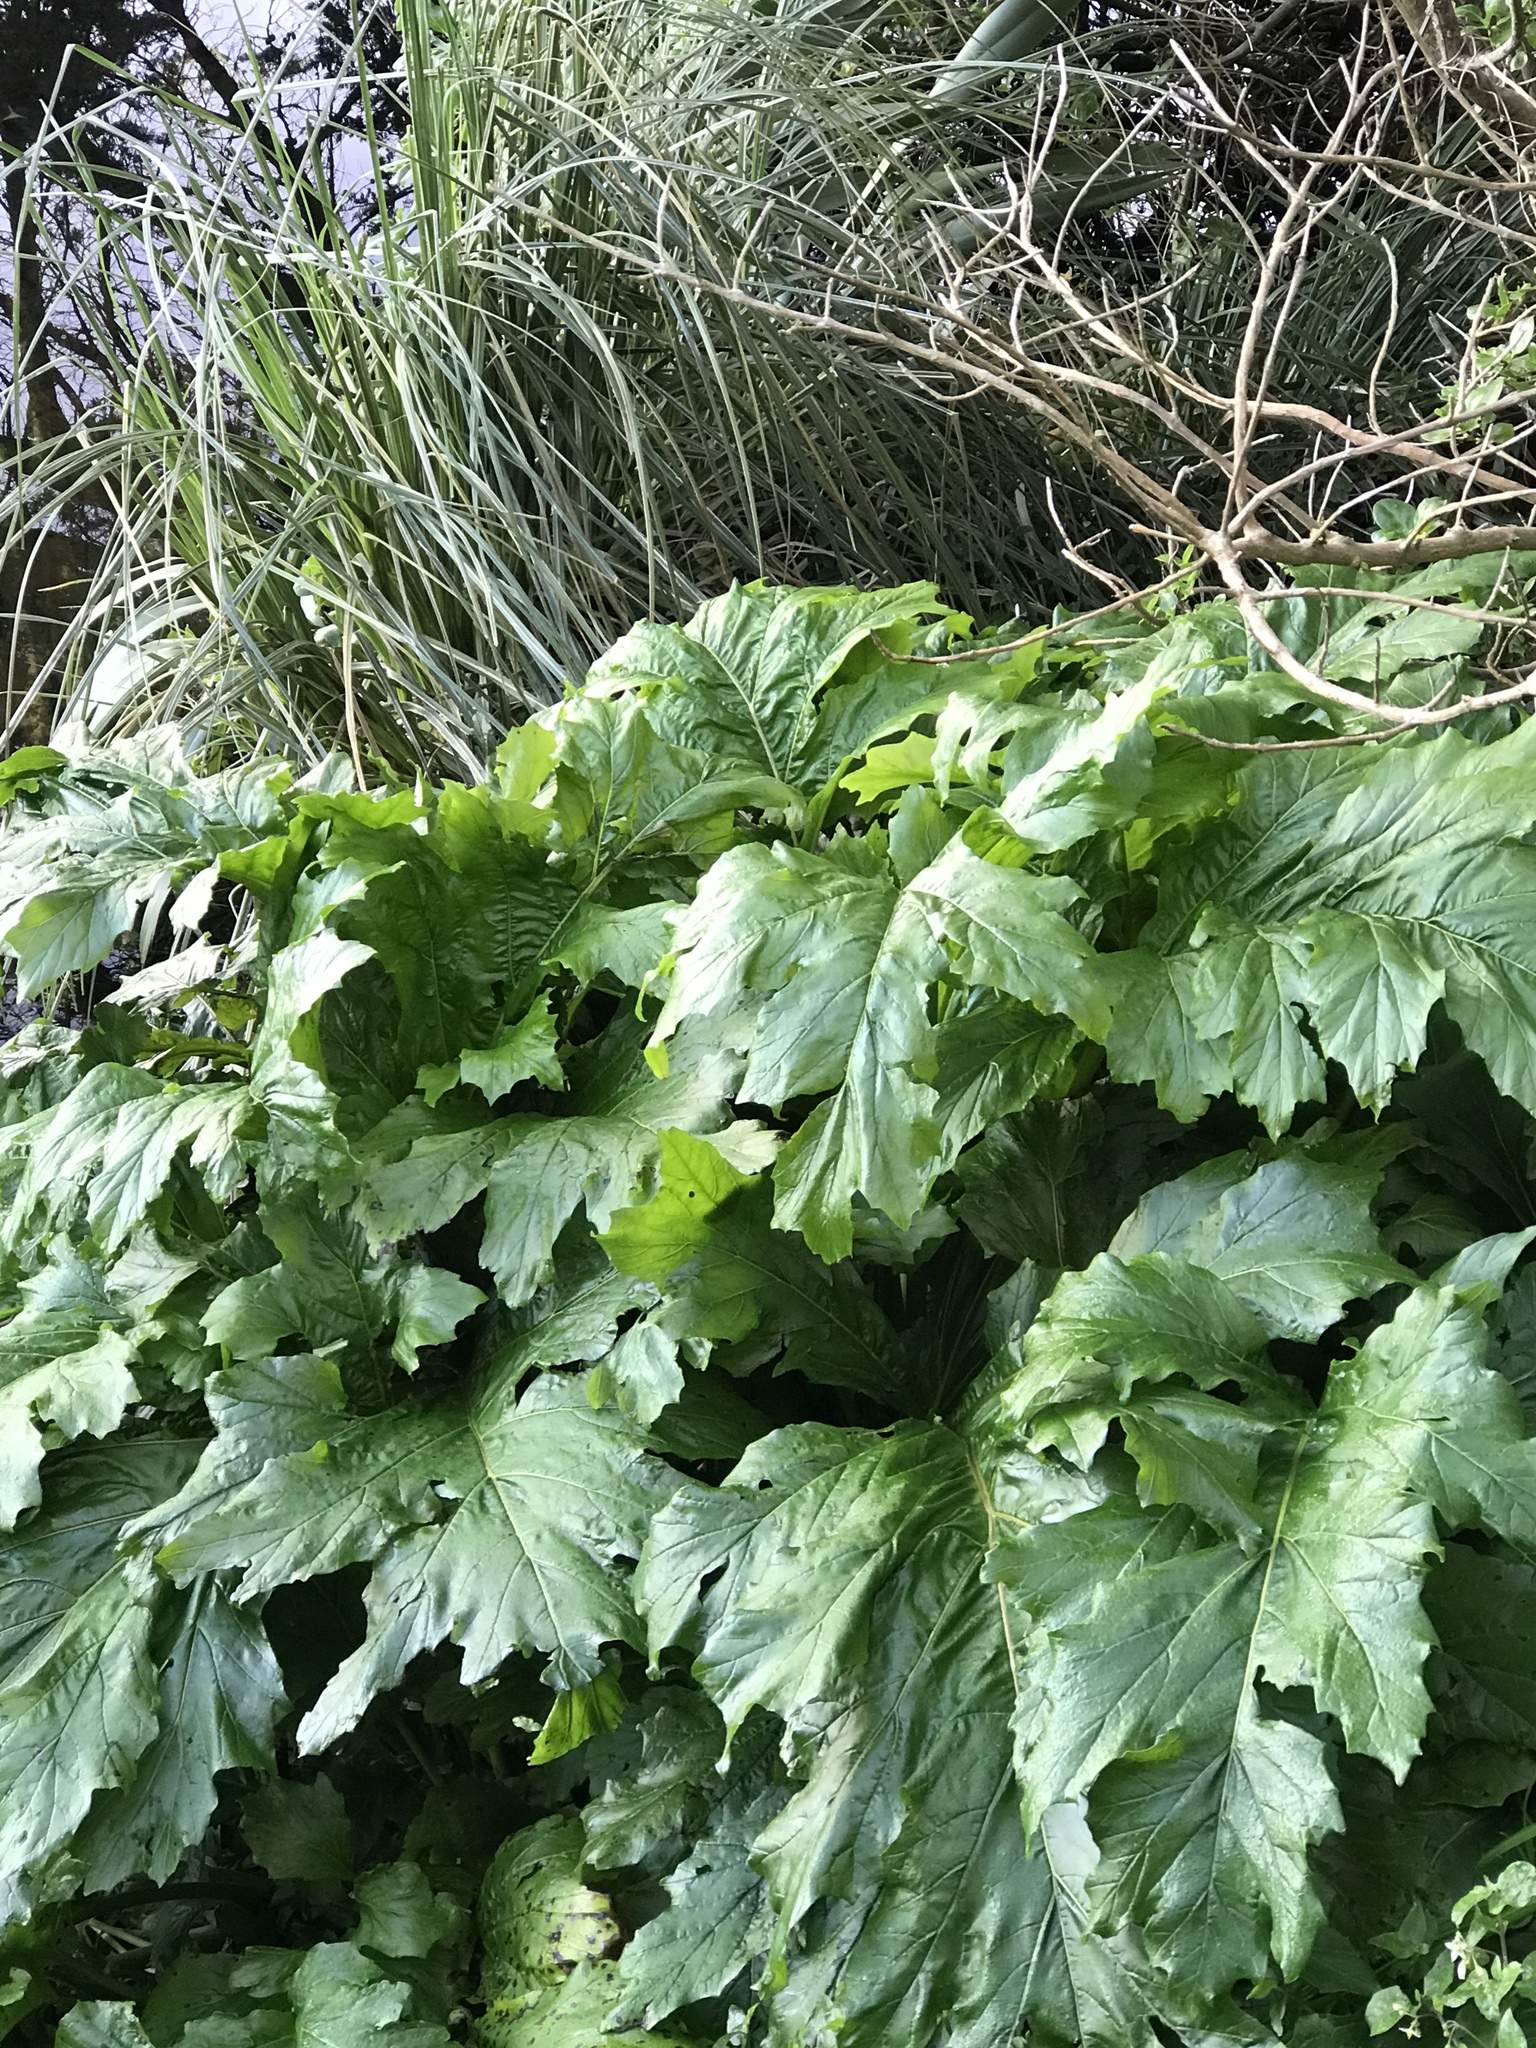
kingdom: Plantae
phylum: Tracheophyta
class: Magnoliopsida
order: Lamiales
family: Acanthaceae
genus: Acanthus
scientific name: Acanthus mollis
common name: Bear's-breech
